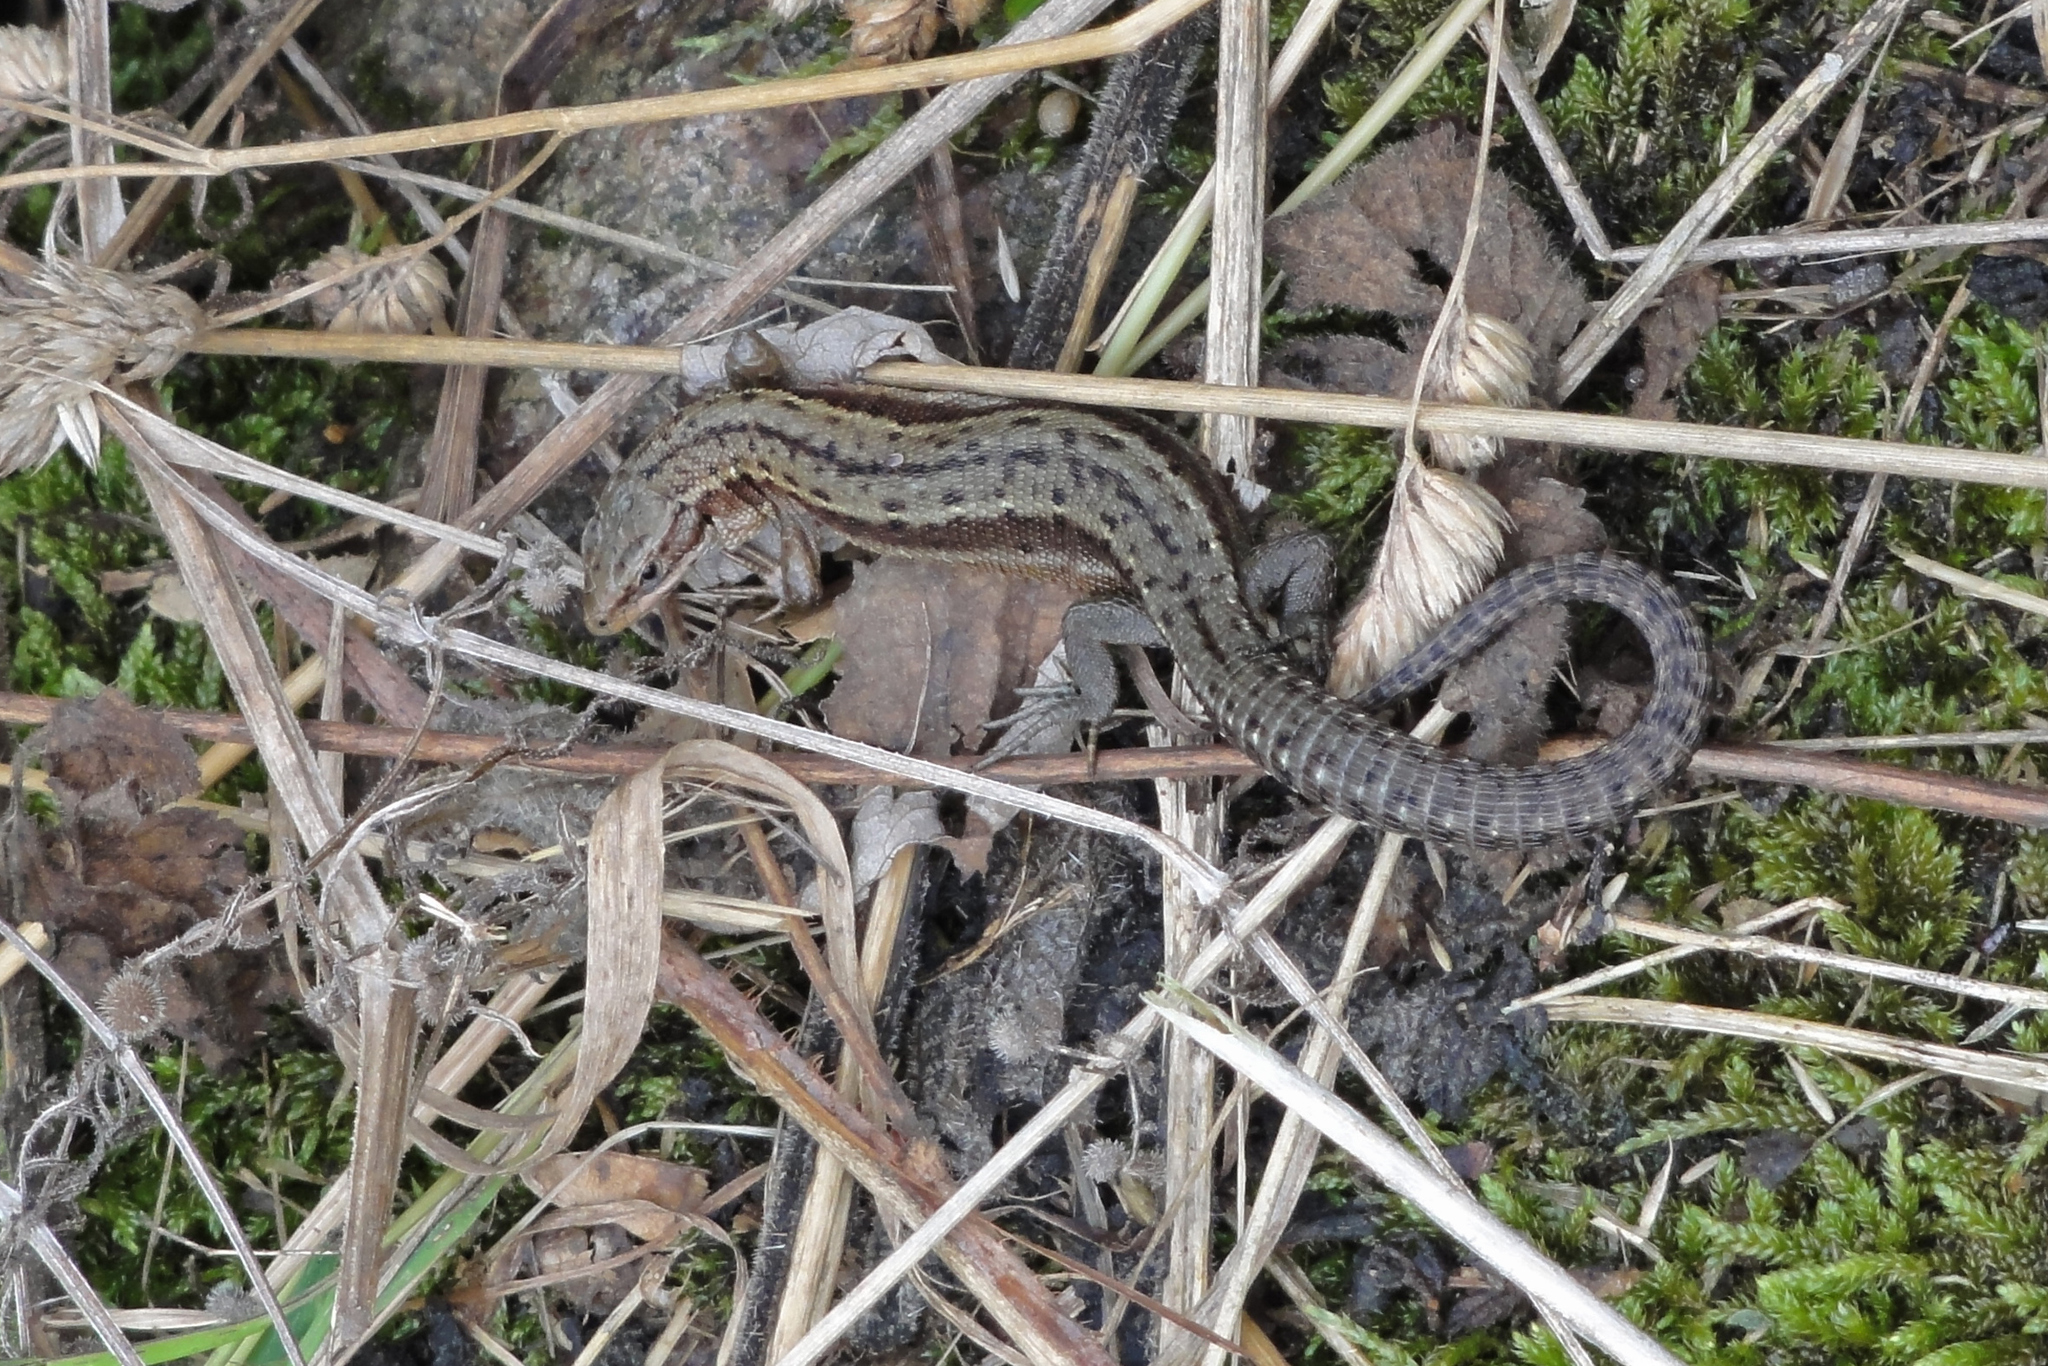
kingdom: Animalia
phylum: Chordata
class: Squamata
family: Lacertidae
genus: Zootoca
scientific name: Zootoca vivipara
